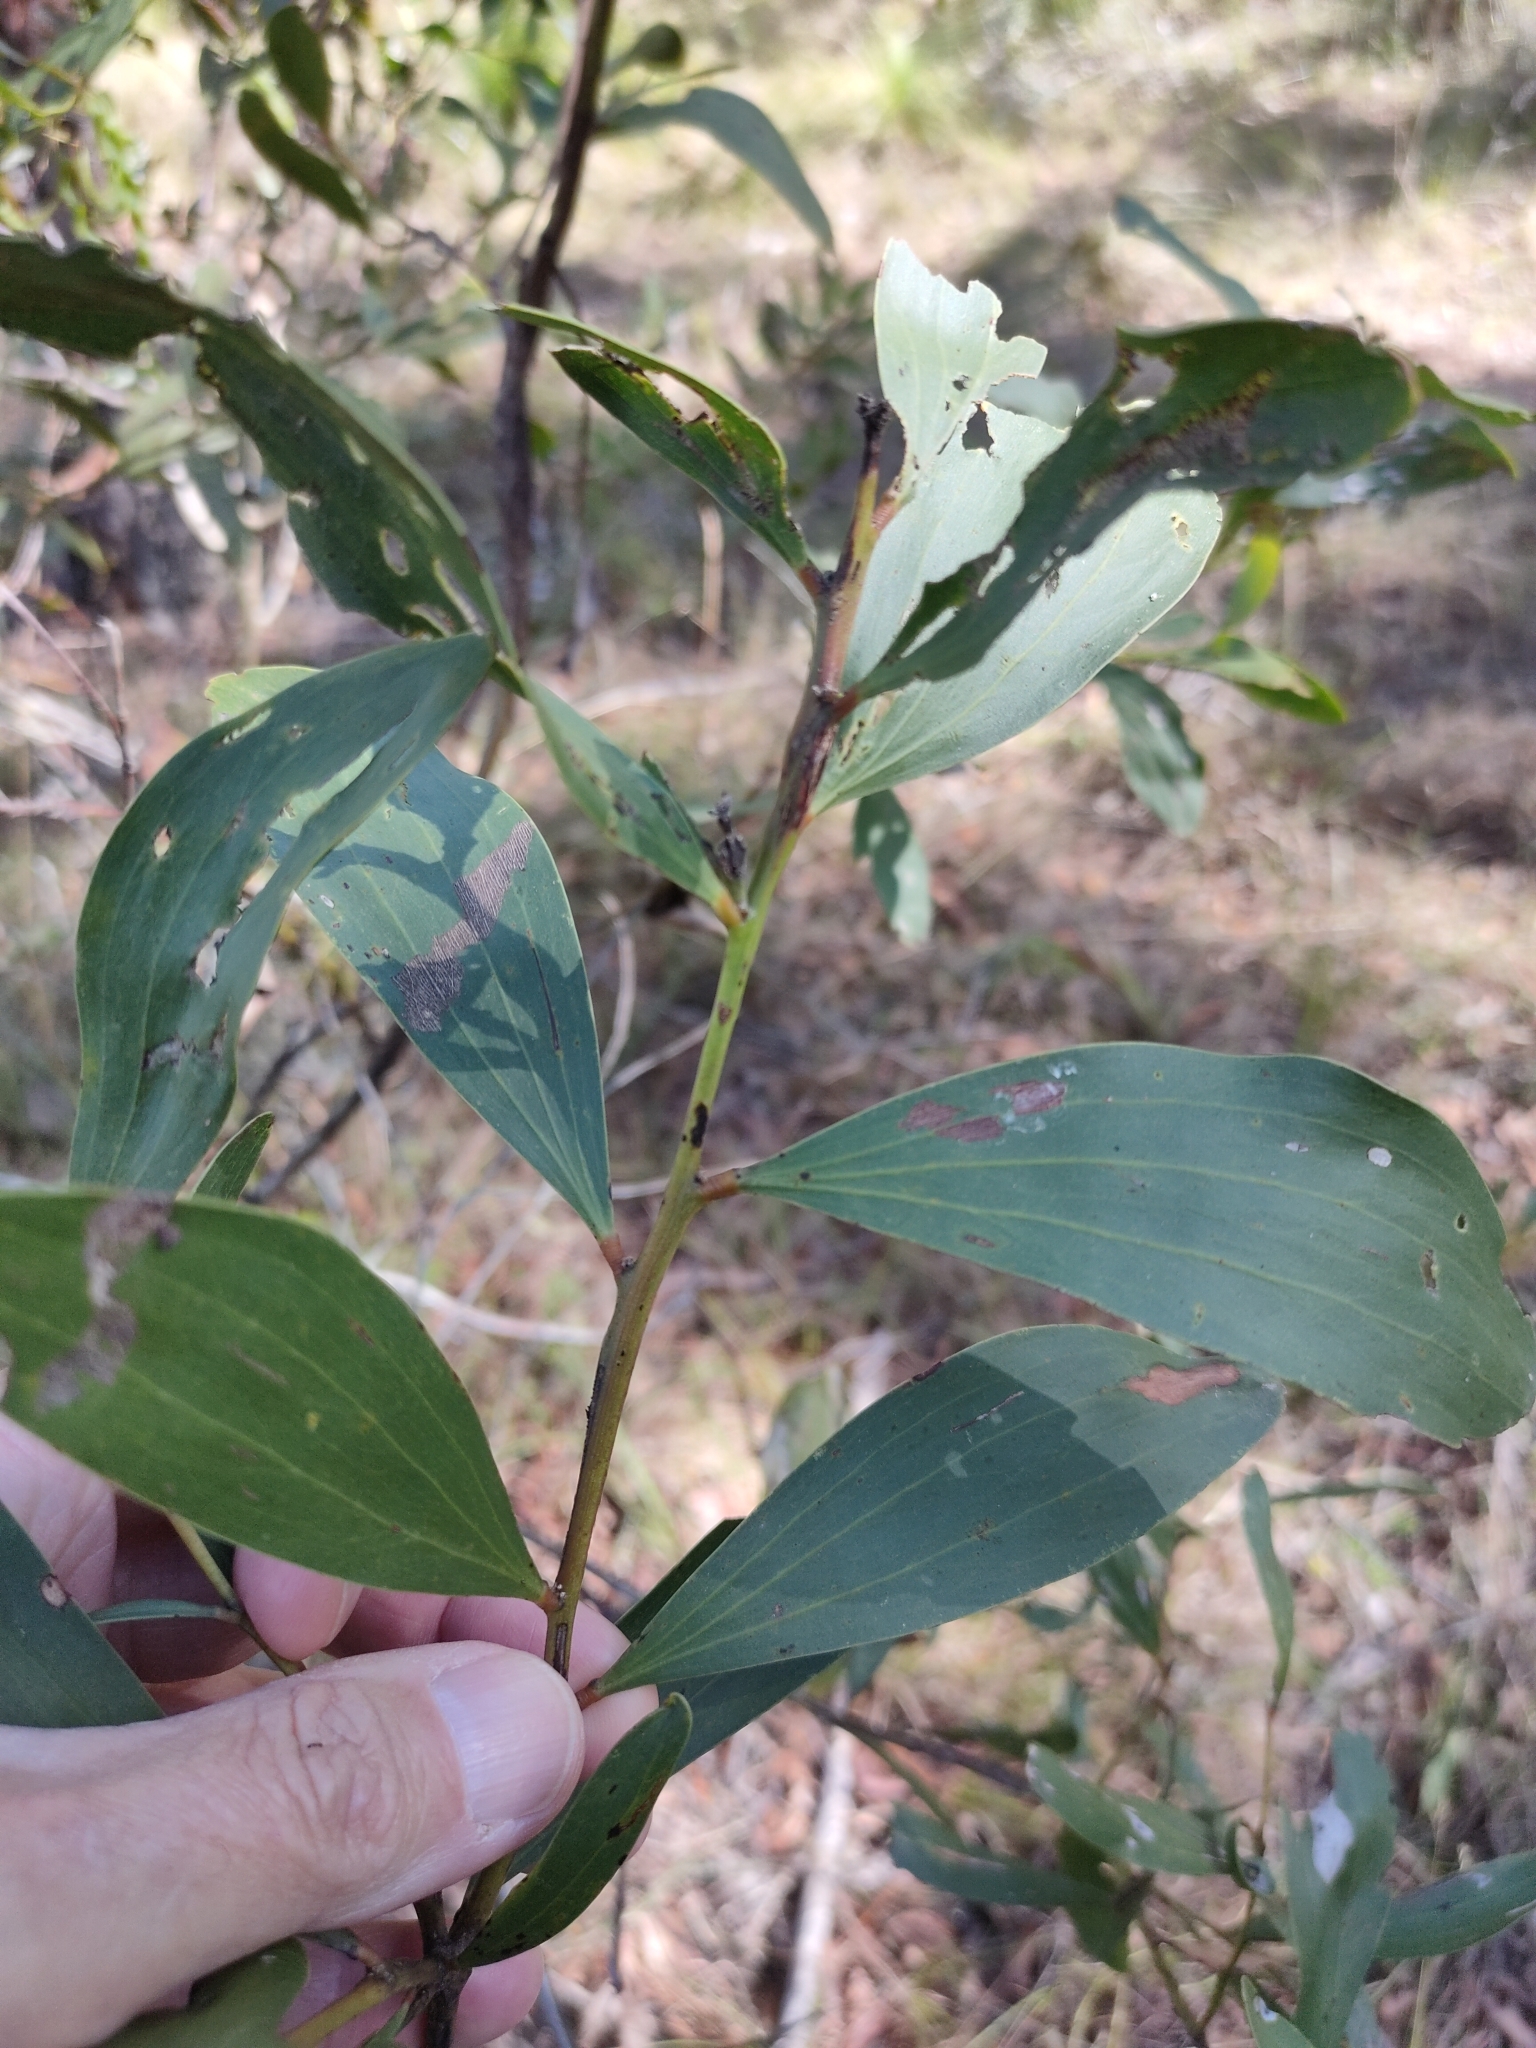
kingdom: Plantae
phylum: Tracheophyta
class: Magnoliopsida
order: Fabales
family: Fabaceae
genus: Acacia
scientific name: Acacia leiocalyx
